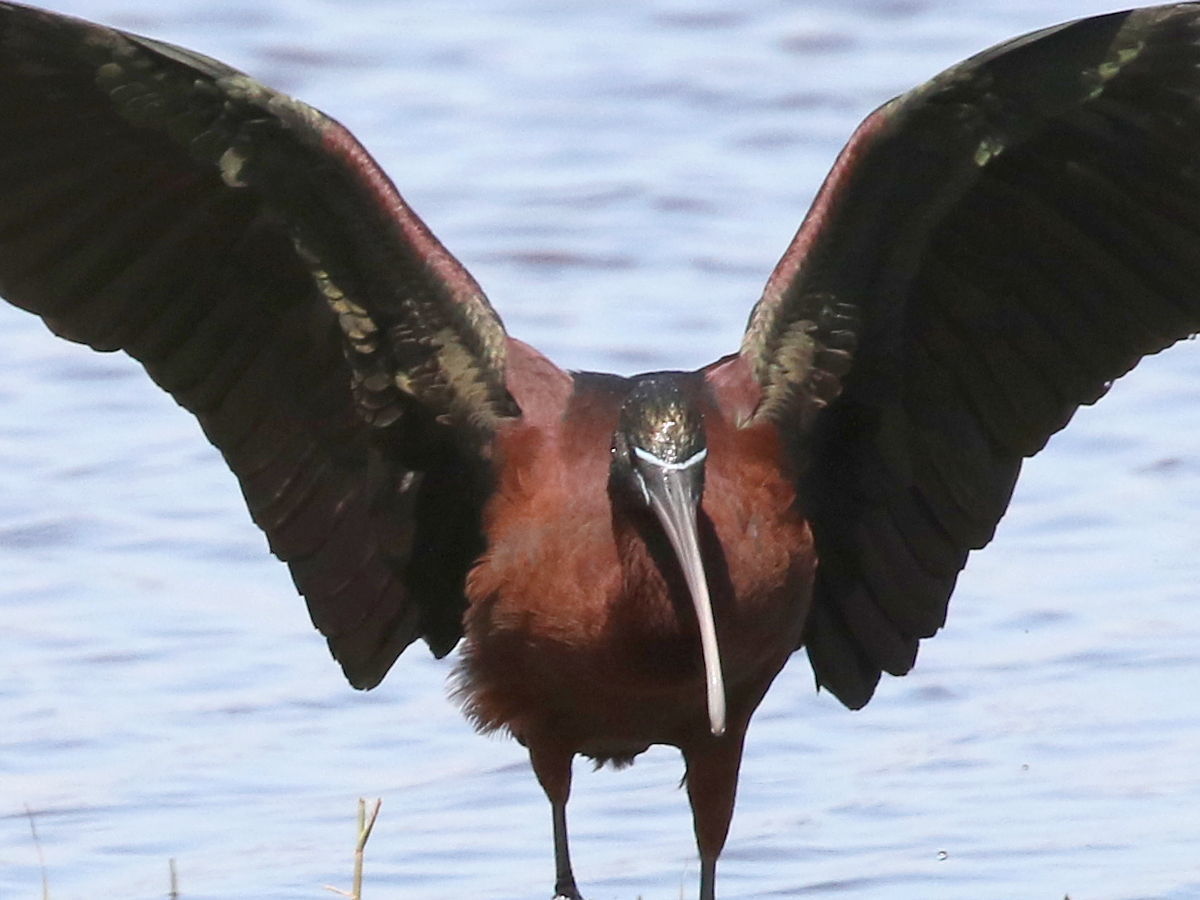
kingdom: Animalia
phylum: Chordata
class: Aves
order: Pelecaniformes
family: Threskiornithidae
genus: Plegadis
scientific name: Plegadis falcinellus
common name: Glossy ibis
